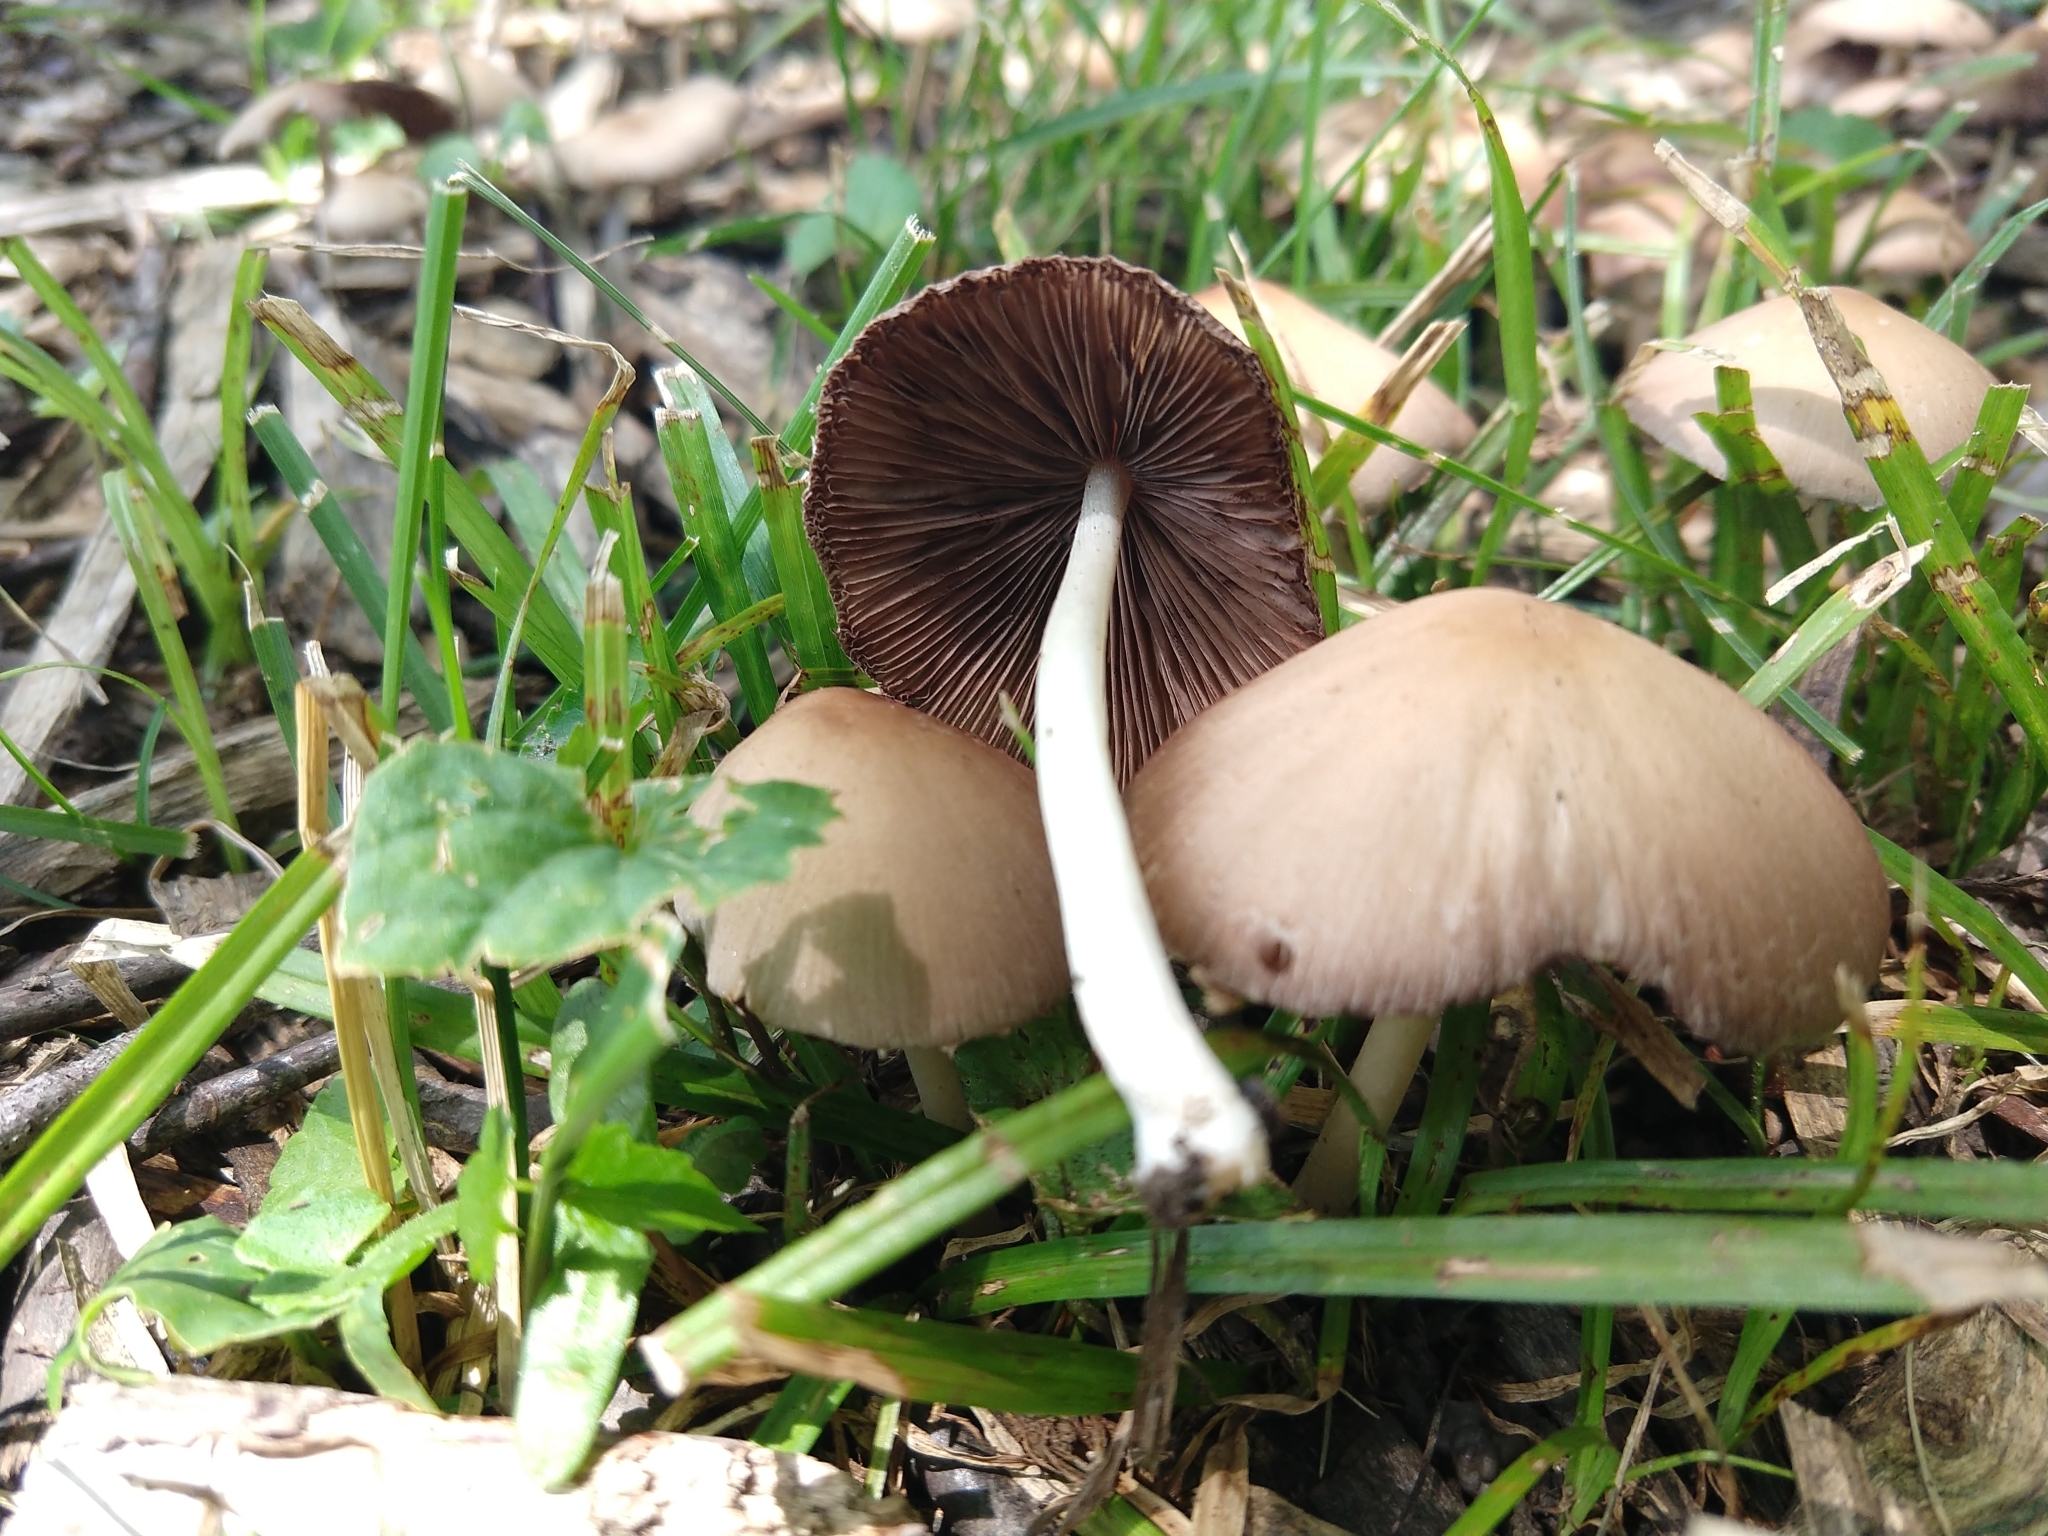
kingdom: Fungi
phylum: Basidiomycota
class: Agaricomycetes
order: Agaricales
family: Psathyrellaceae
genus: Candolleomyces
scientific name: Candolleomyces candolleanus
